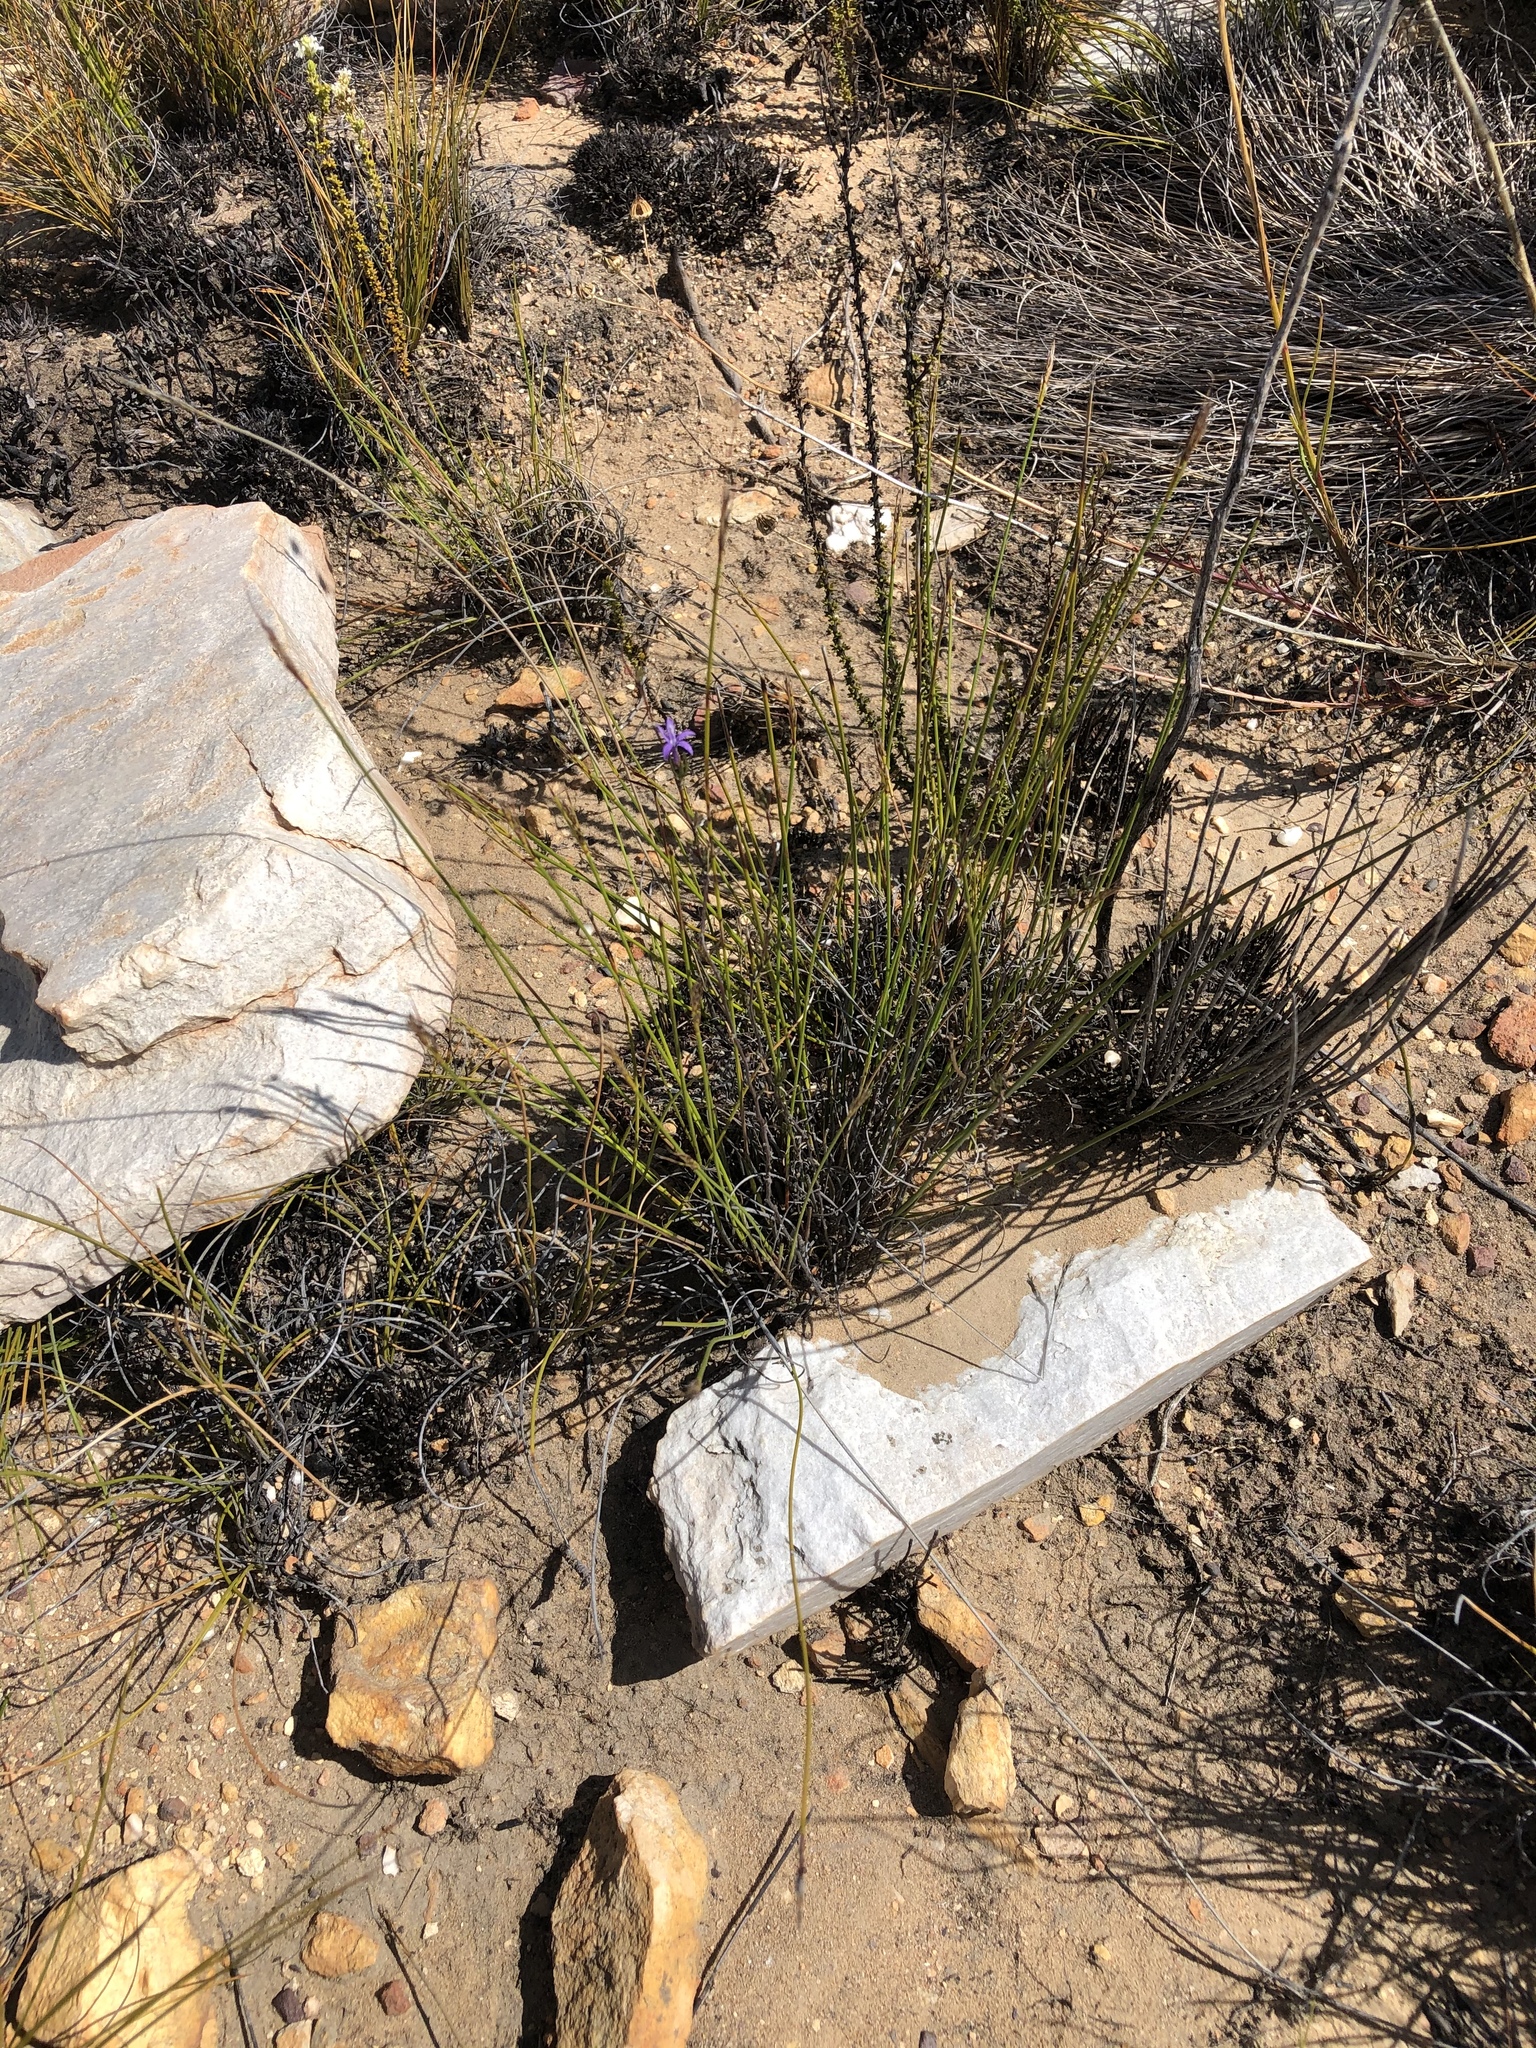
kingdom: Plantae
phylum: Tracheophyta
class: Magnoliopsida
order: Asterales
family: Campanulaceae
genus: Theilera
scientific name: Theilera guthriei
